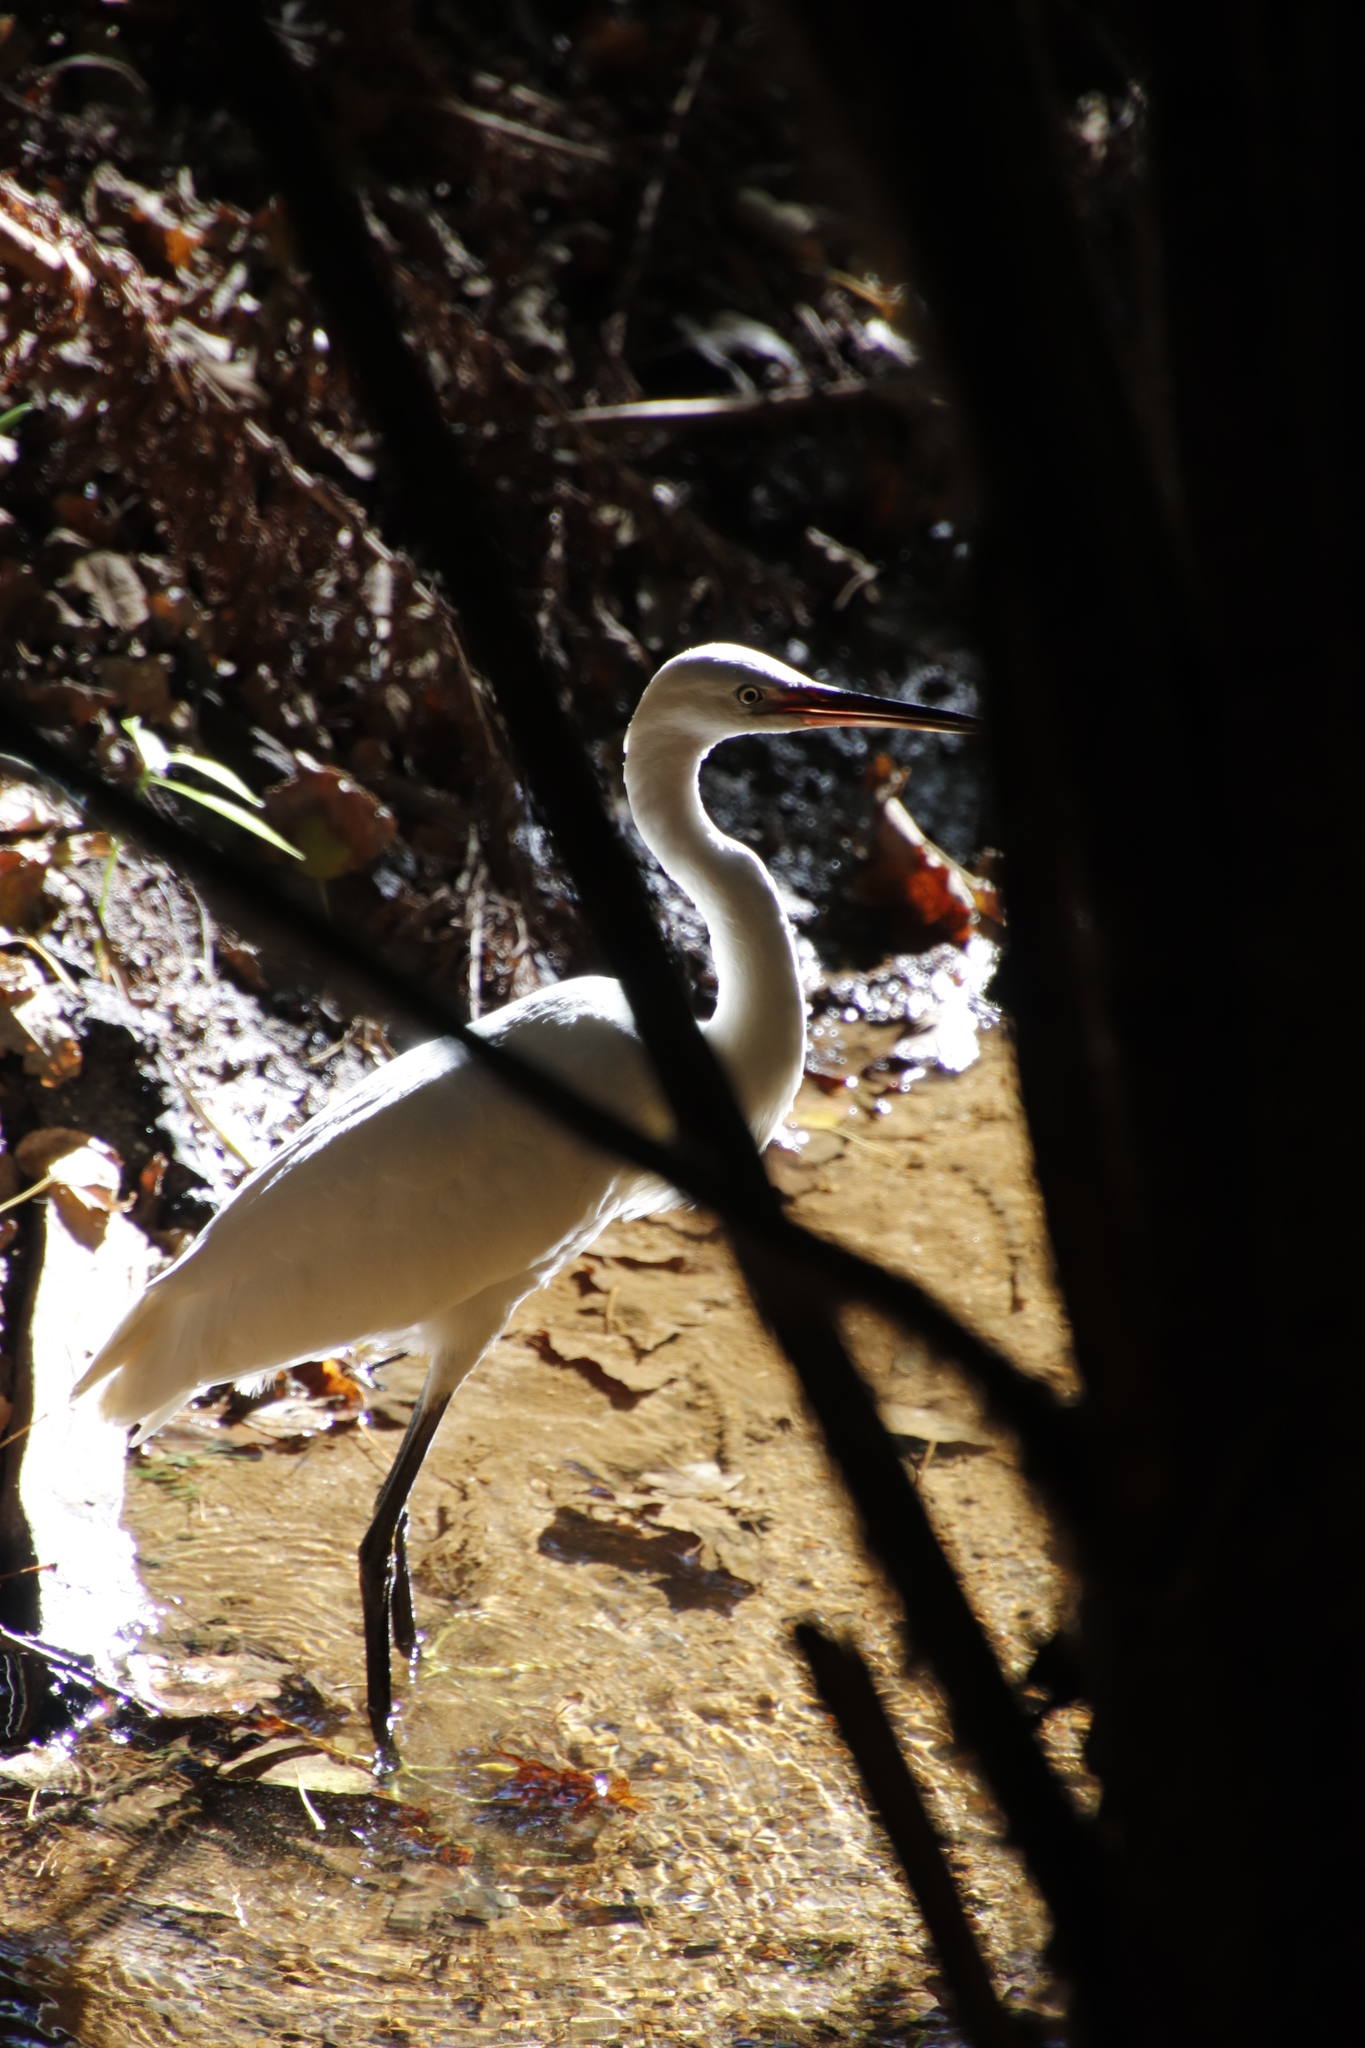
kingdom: Animalia
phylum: Chordata
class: Aves
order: Pelecaniformes
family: Ardeidae
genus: Egretta
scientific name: Egretta garzetta
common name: Little egret
